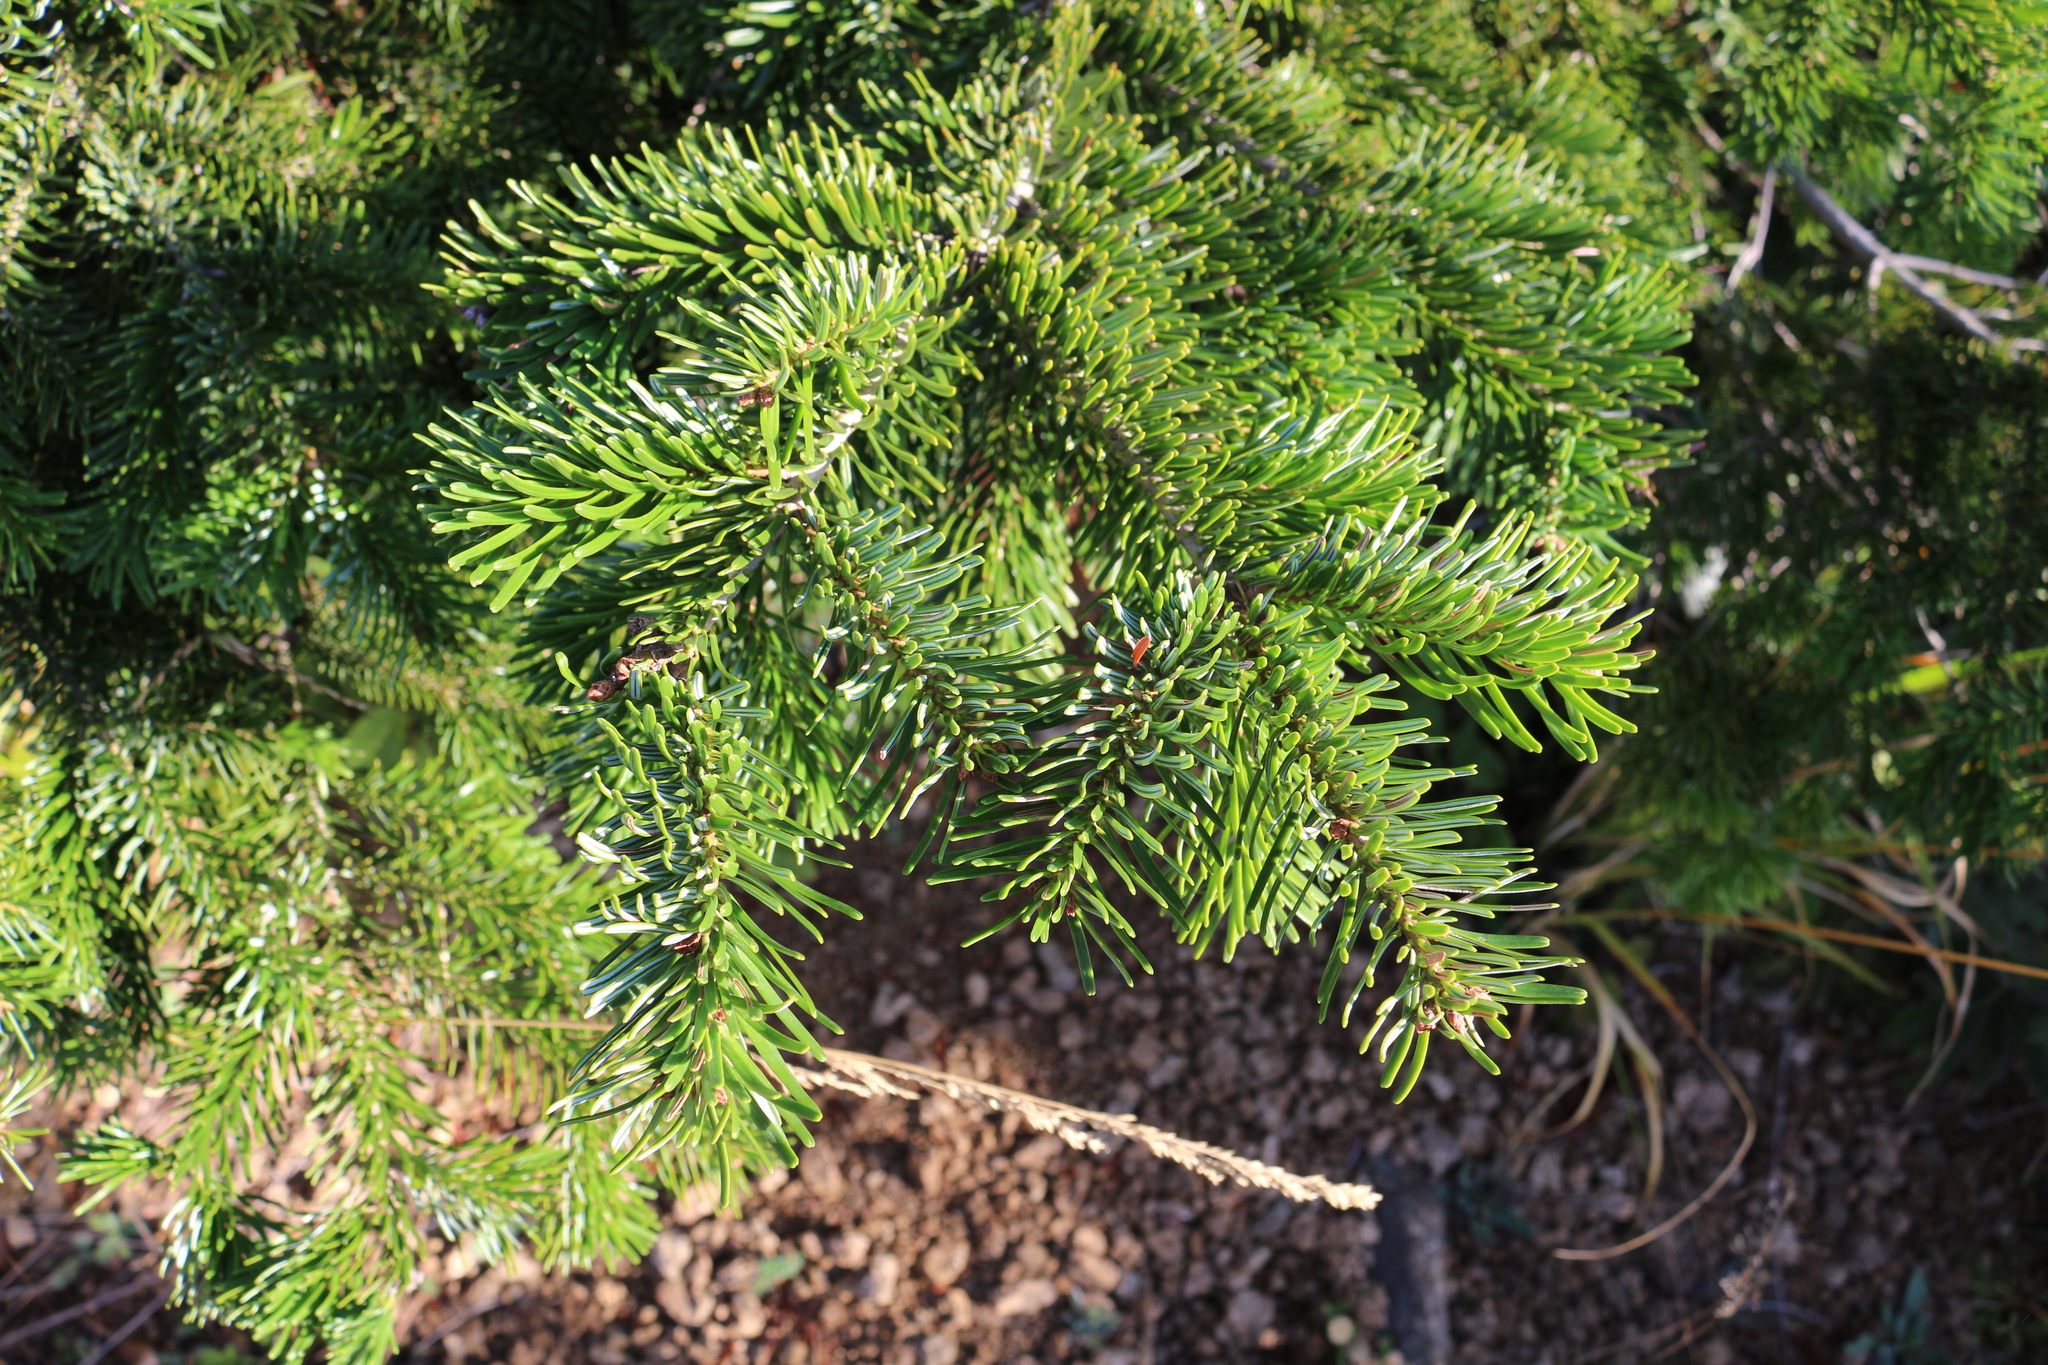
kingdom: Plantae
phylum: Tracheophyta
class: Pinopsida
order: Pinales
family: Pinaceae
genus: Abies
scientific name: Abies nordmanniana
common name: Caucasian fir
